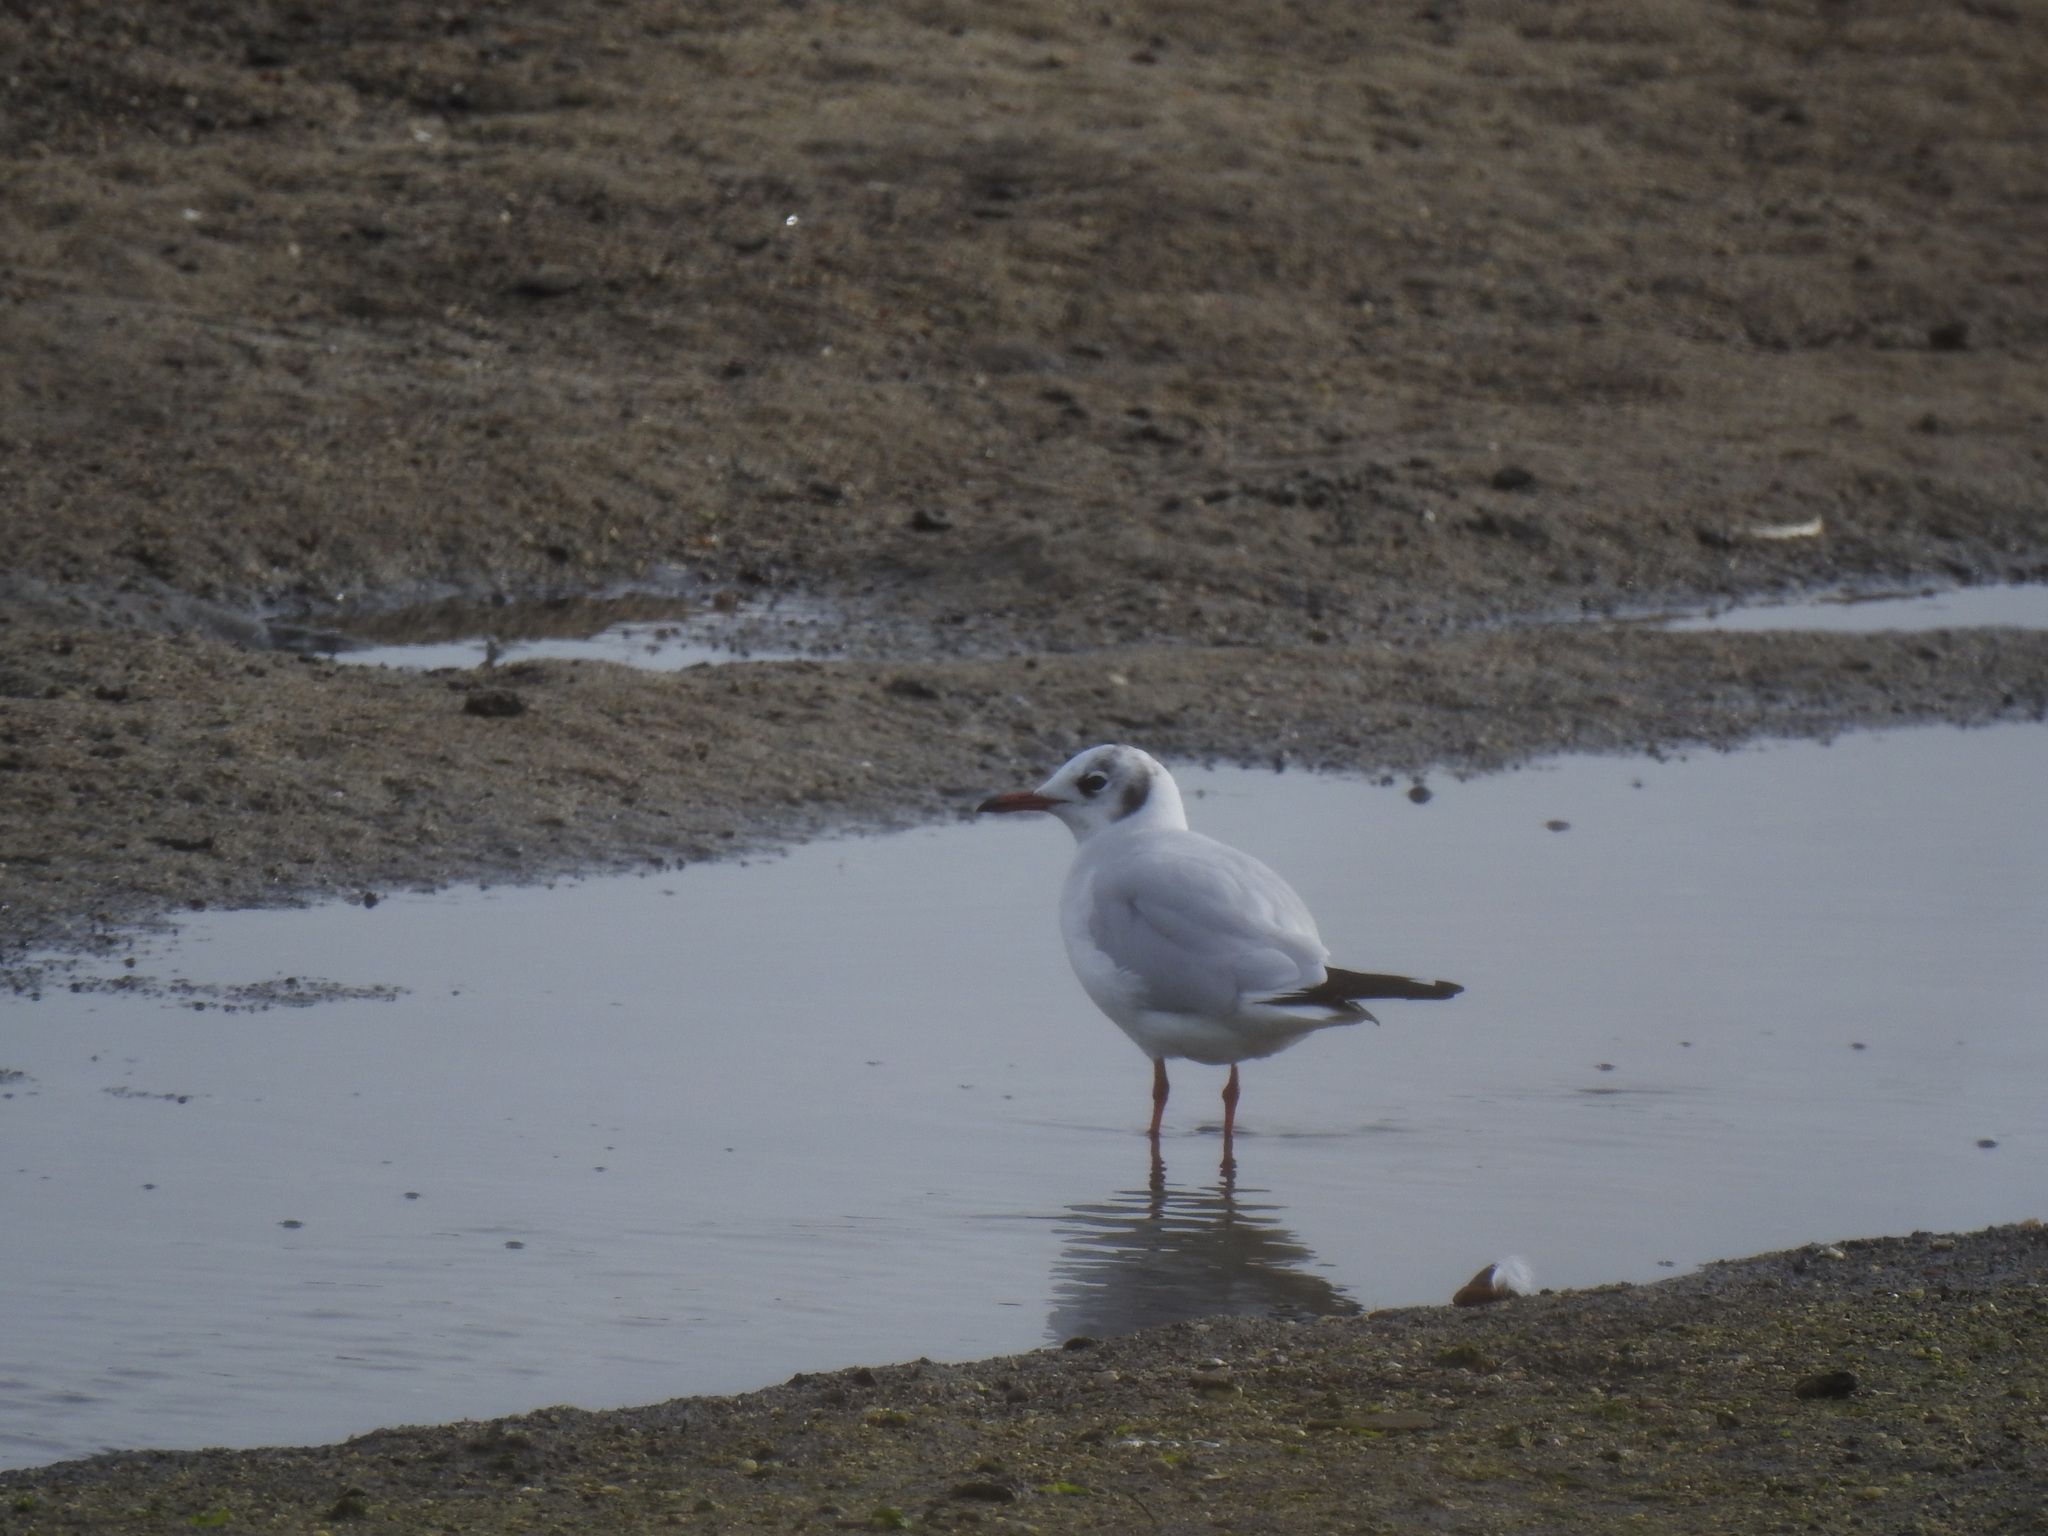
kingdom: Animalia
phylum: Chordata
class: Aves
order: Charadriiformes
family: Laridae
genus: Chroicocephalus
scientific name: Chroicocephalus ridibundus
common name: Black-headed gull
